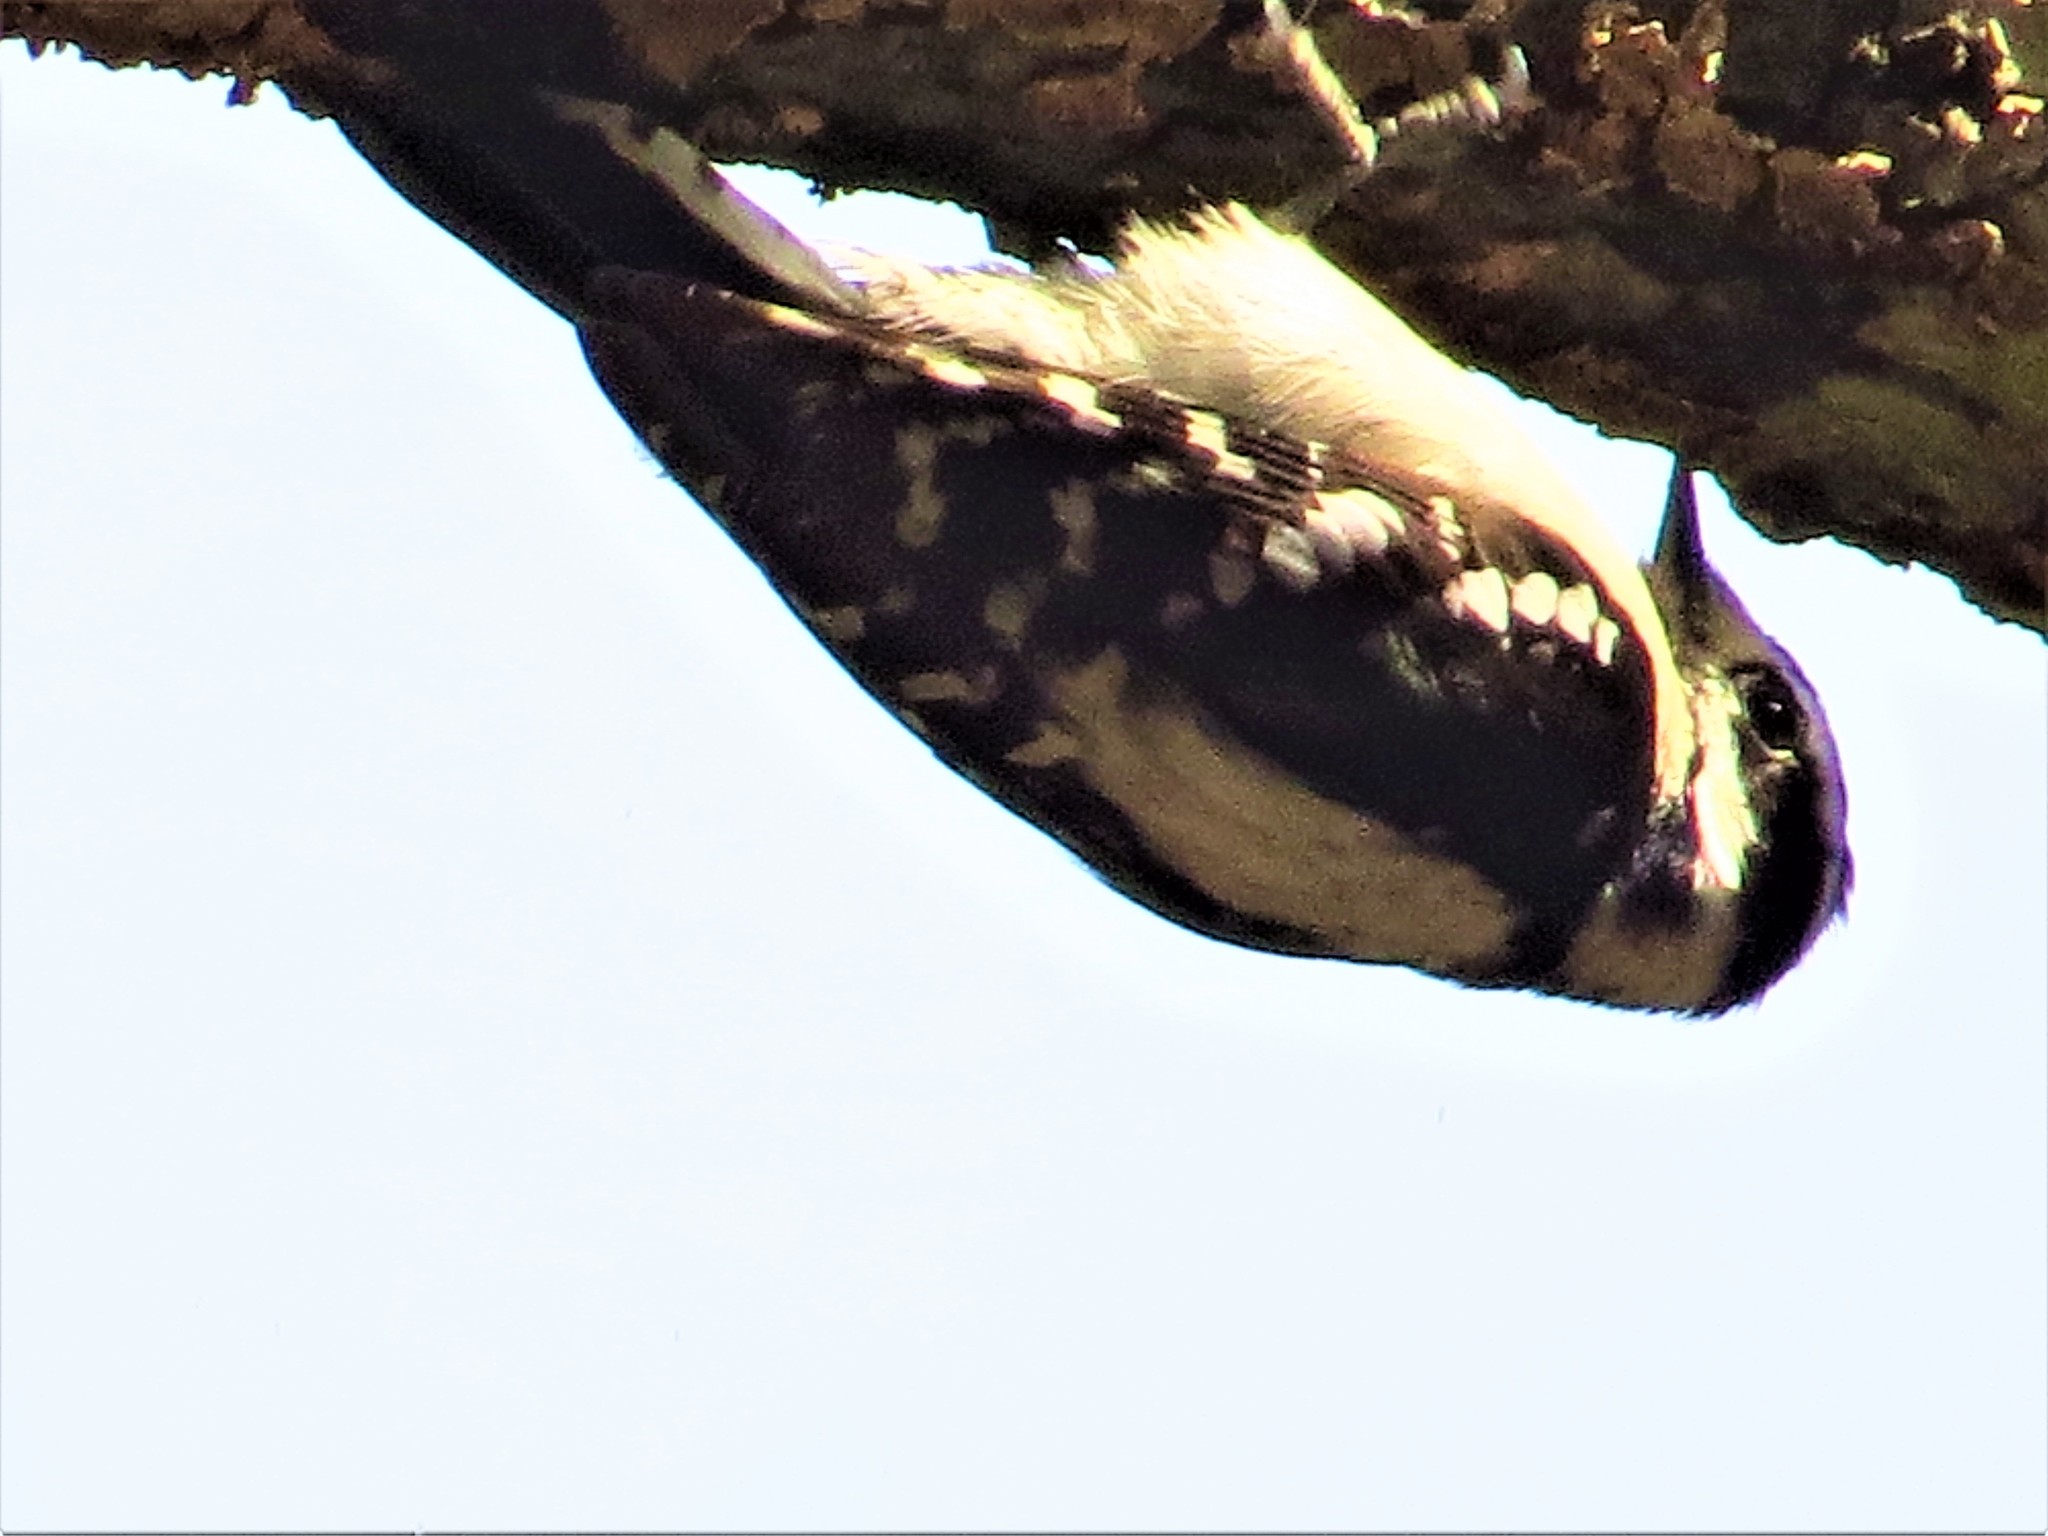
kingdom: Animalia
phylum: Chordata
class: Aves
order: Piciformes
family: Picidae
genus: Dryobates
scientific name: Dryobates pubescens
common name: Downy woodpecker
